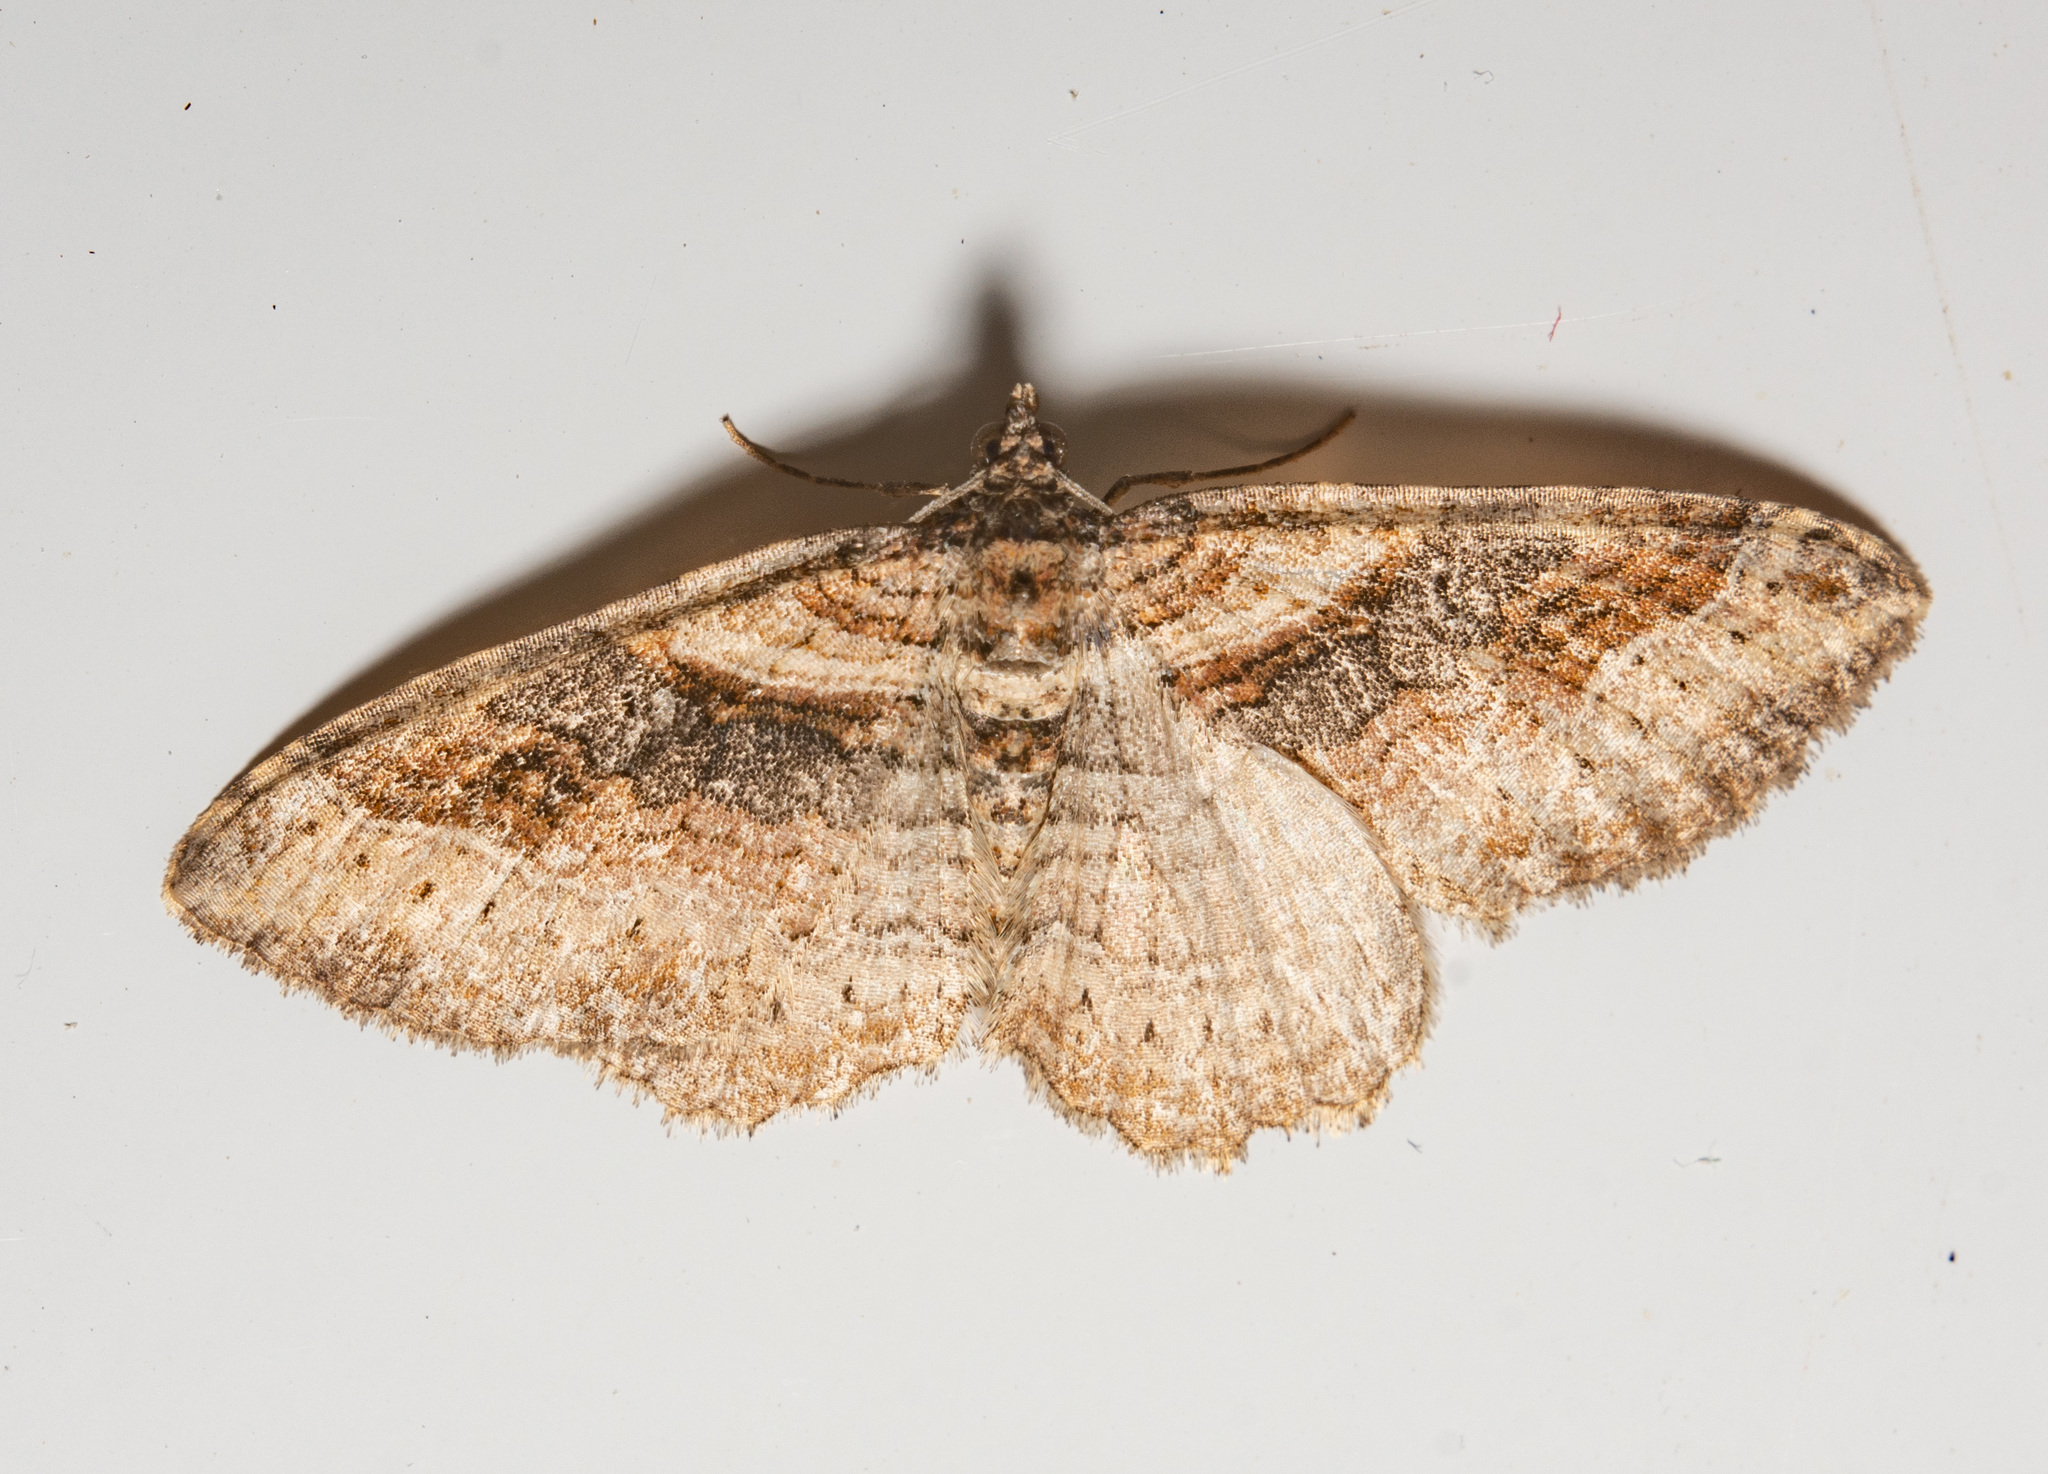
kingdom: Animalia
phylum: Arthropoda
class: Insecta
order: Lepidoptera
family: Geometridae
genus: Costaconvexa
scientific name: Costaconvexa centrostrigaria
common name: Bent-line carpet
